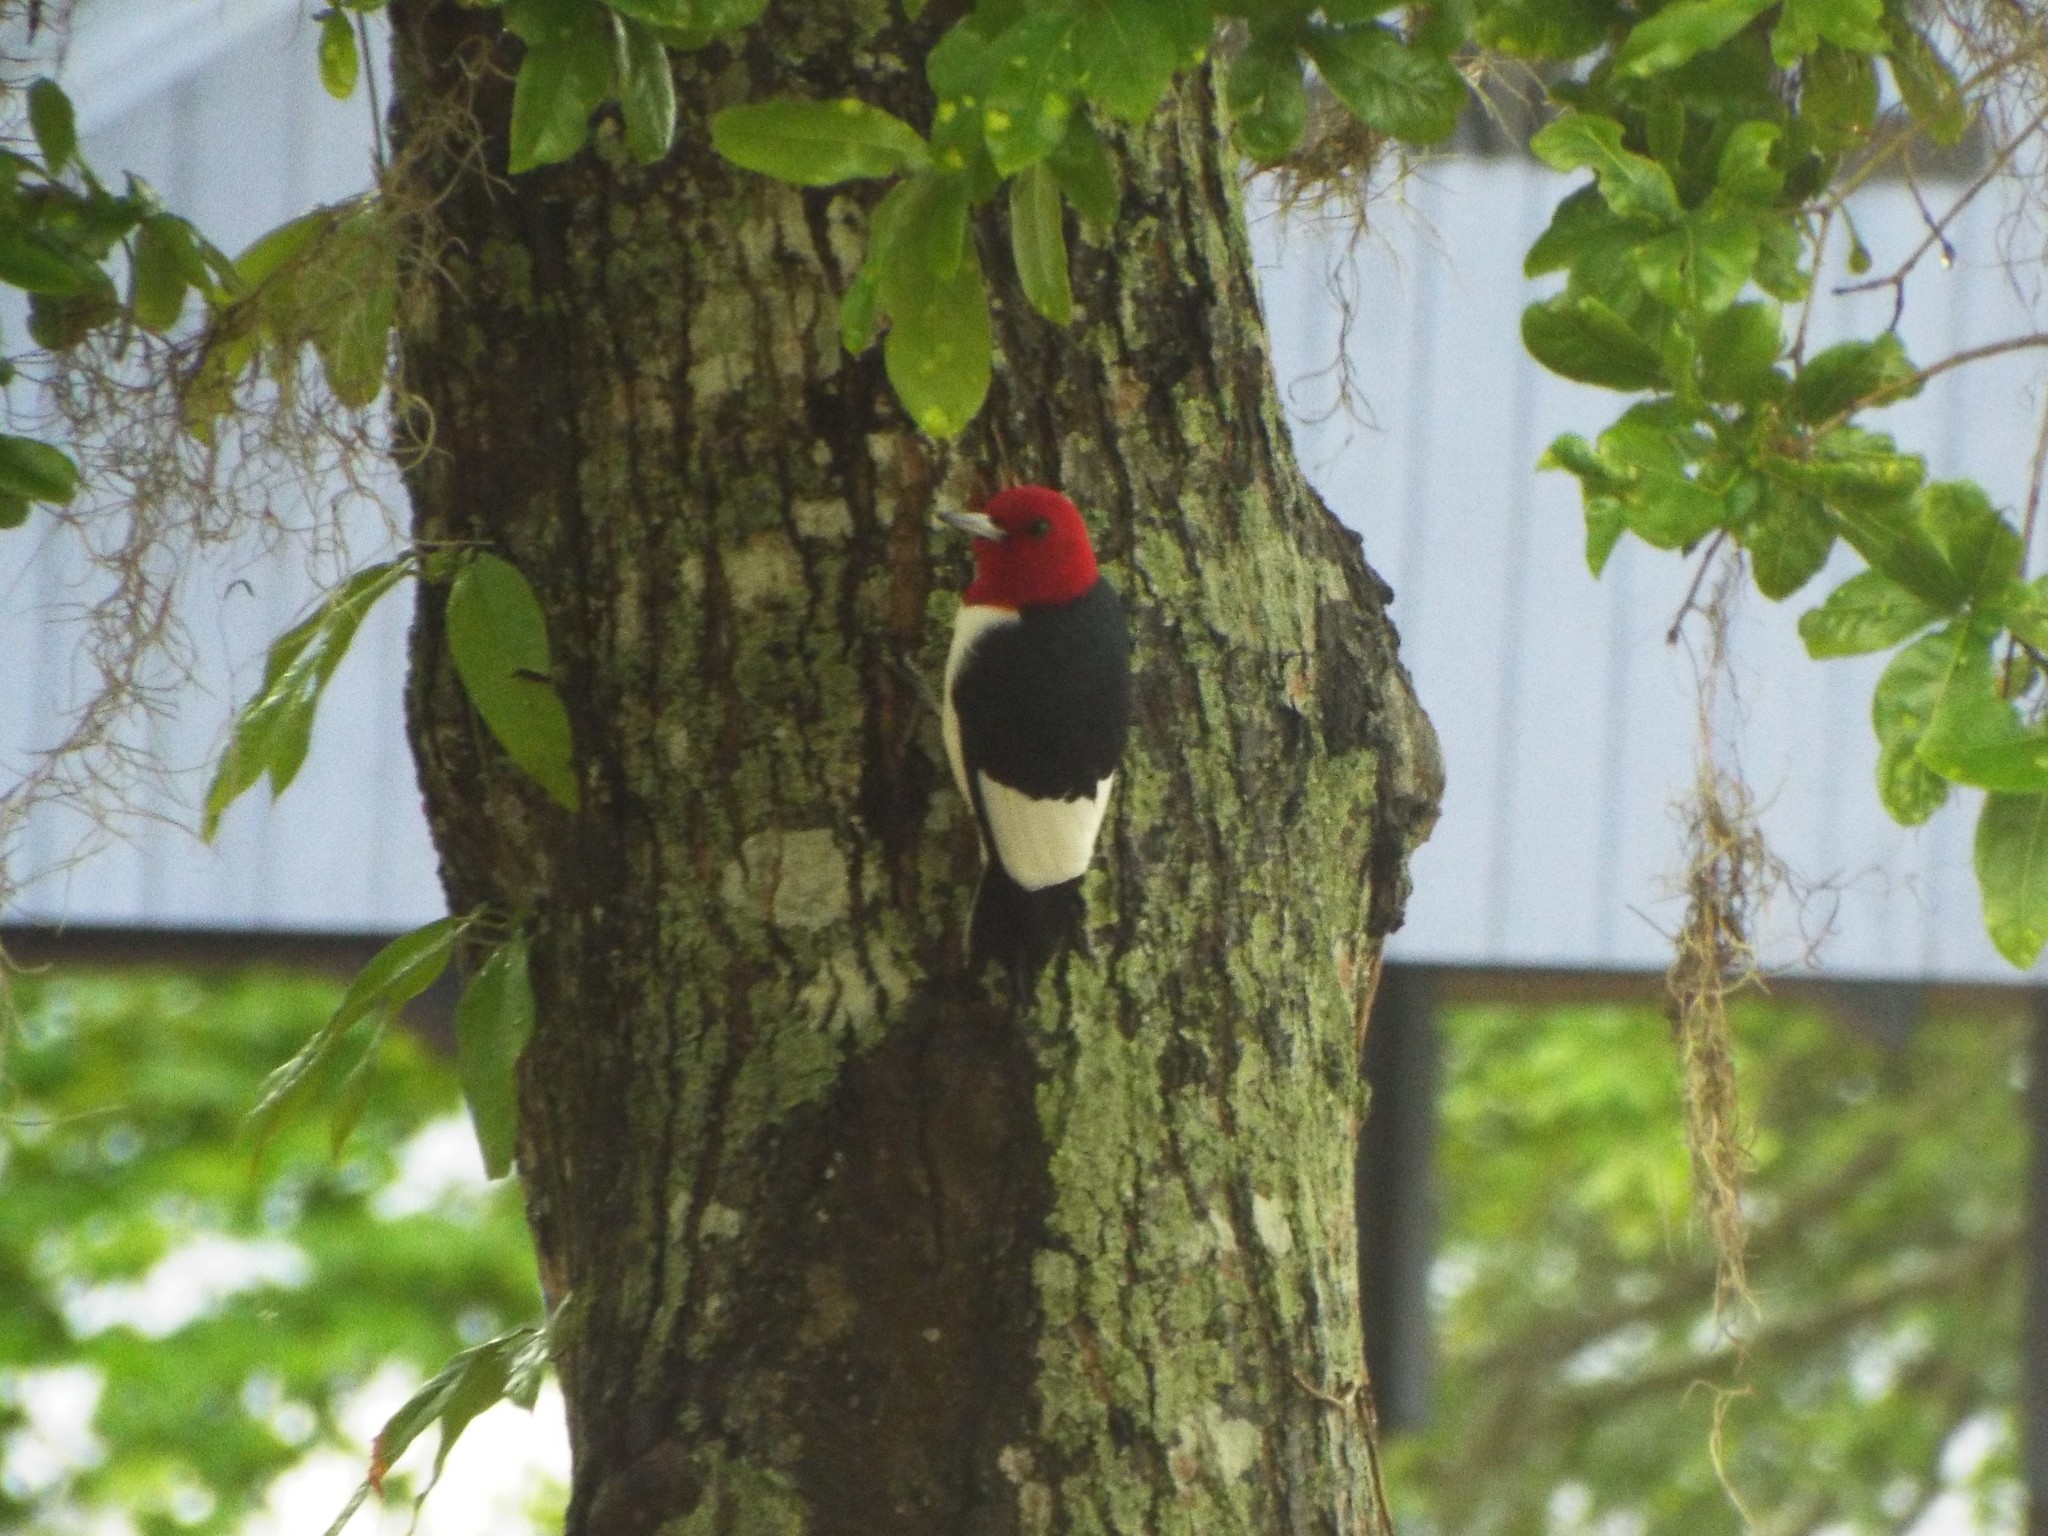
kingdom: Animalia
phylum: Chordata
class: Aves
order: Piciformes
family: Picidae
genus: Melanerpes
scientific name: Melanerpes erythrocephalus
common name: Red-headed woodpecker
